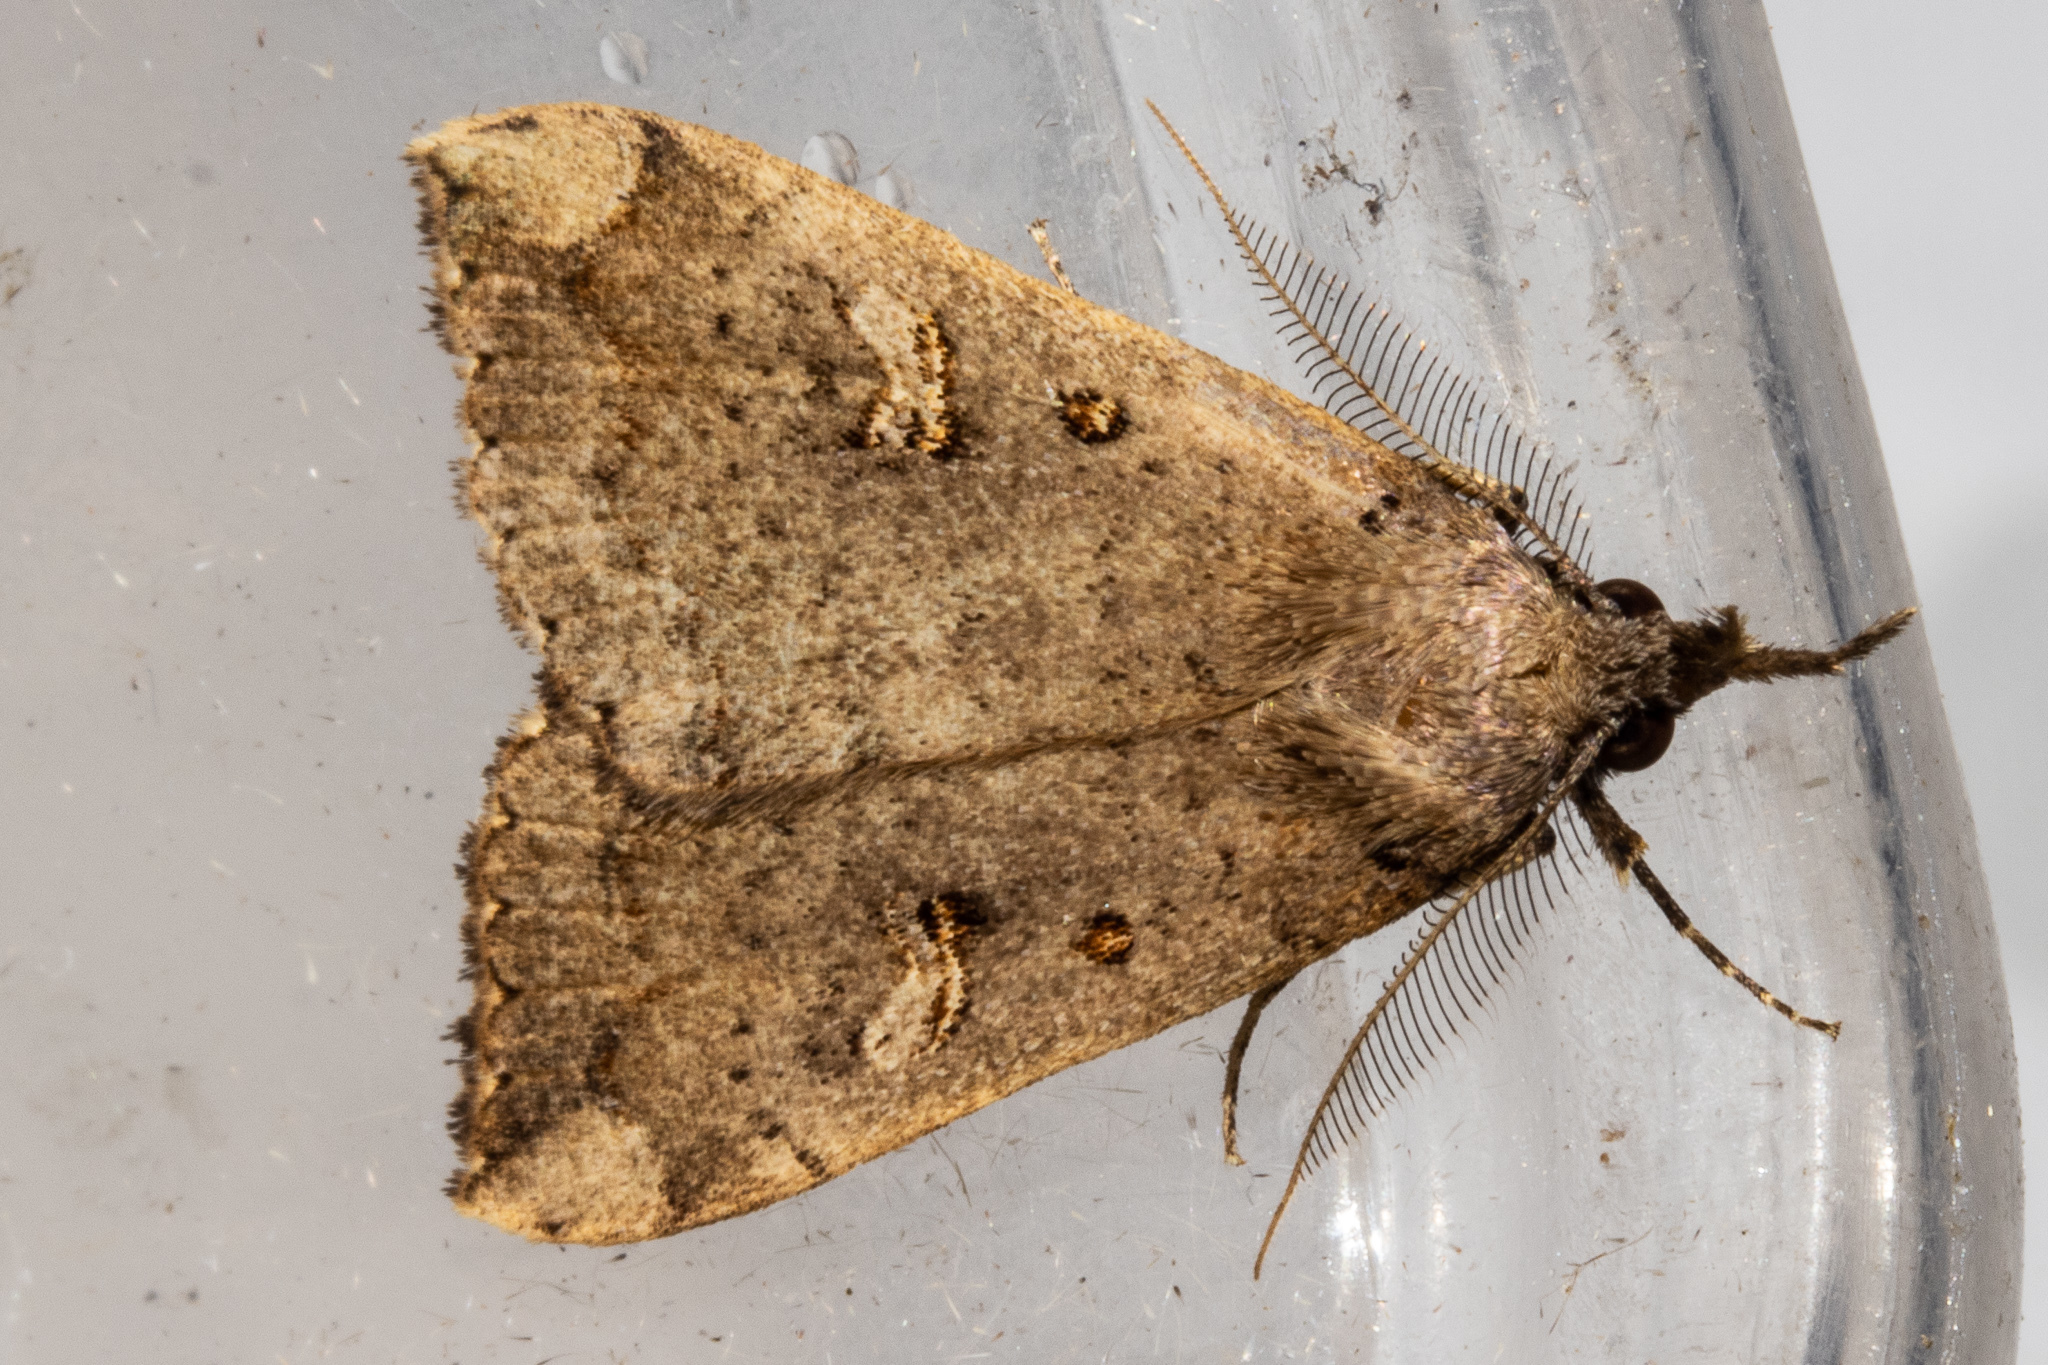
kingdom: Animalia
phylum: Arthropoda
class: Insecta
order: Lepidoptera
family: Erebidae
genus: Rhapsa
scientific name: Rhapsa scotosialis
